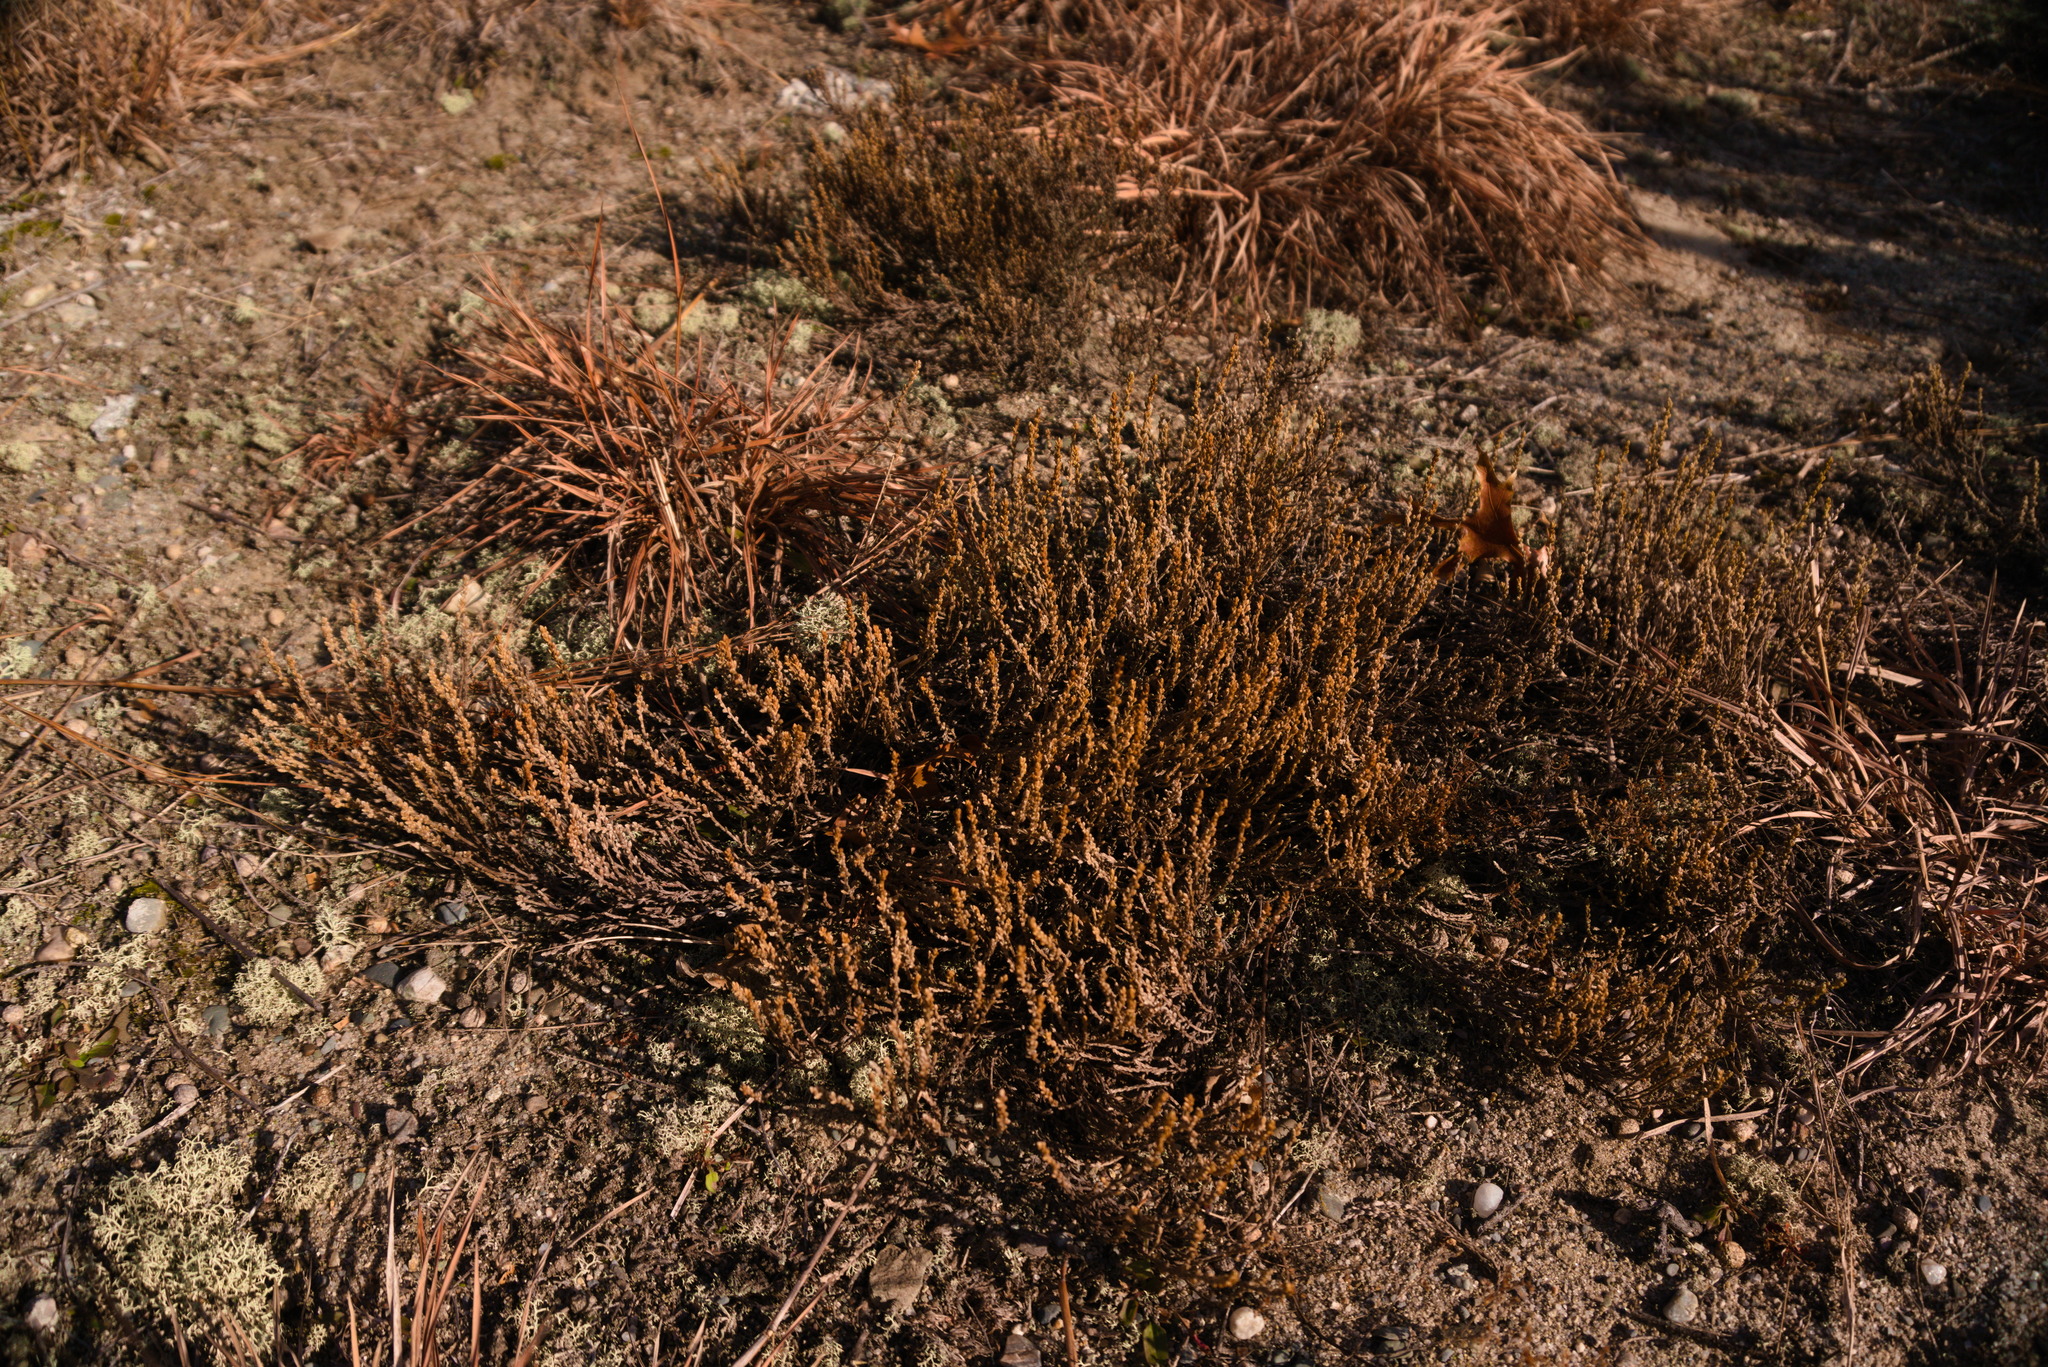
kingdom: Plantae
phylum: Tracheophyta
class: Magnoliopsida
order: Malvales
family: Cistaceae
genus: Hudsonia
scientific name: Hudsonia tomentosa
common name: Beach-heath
